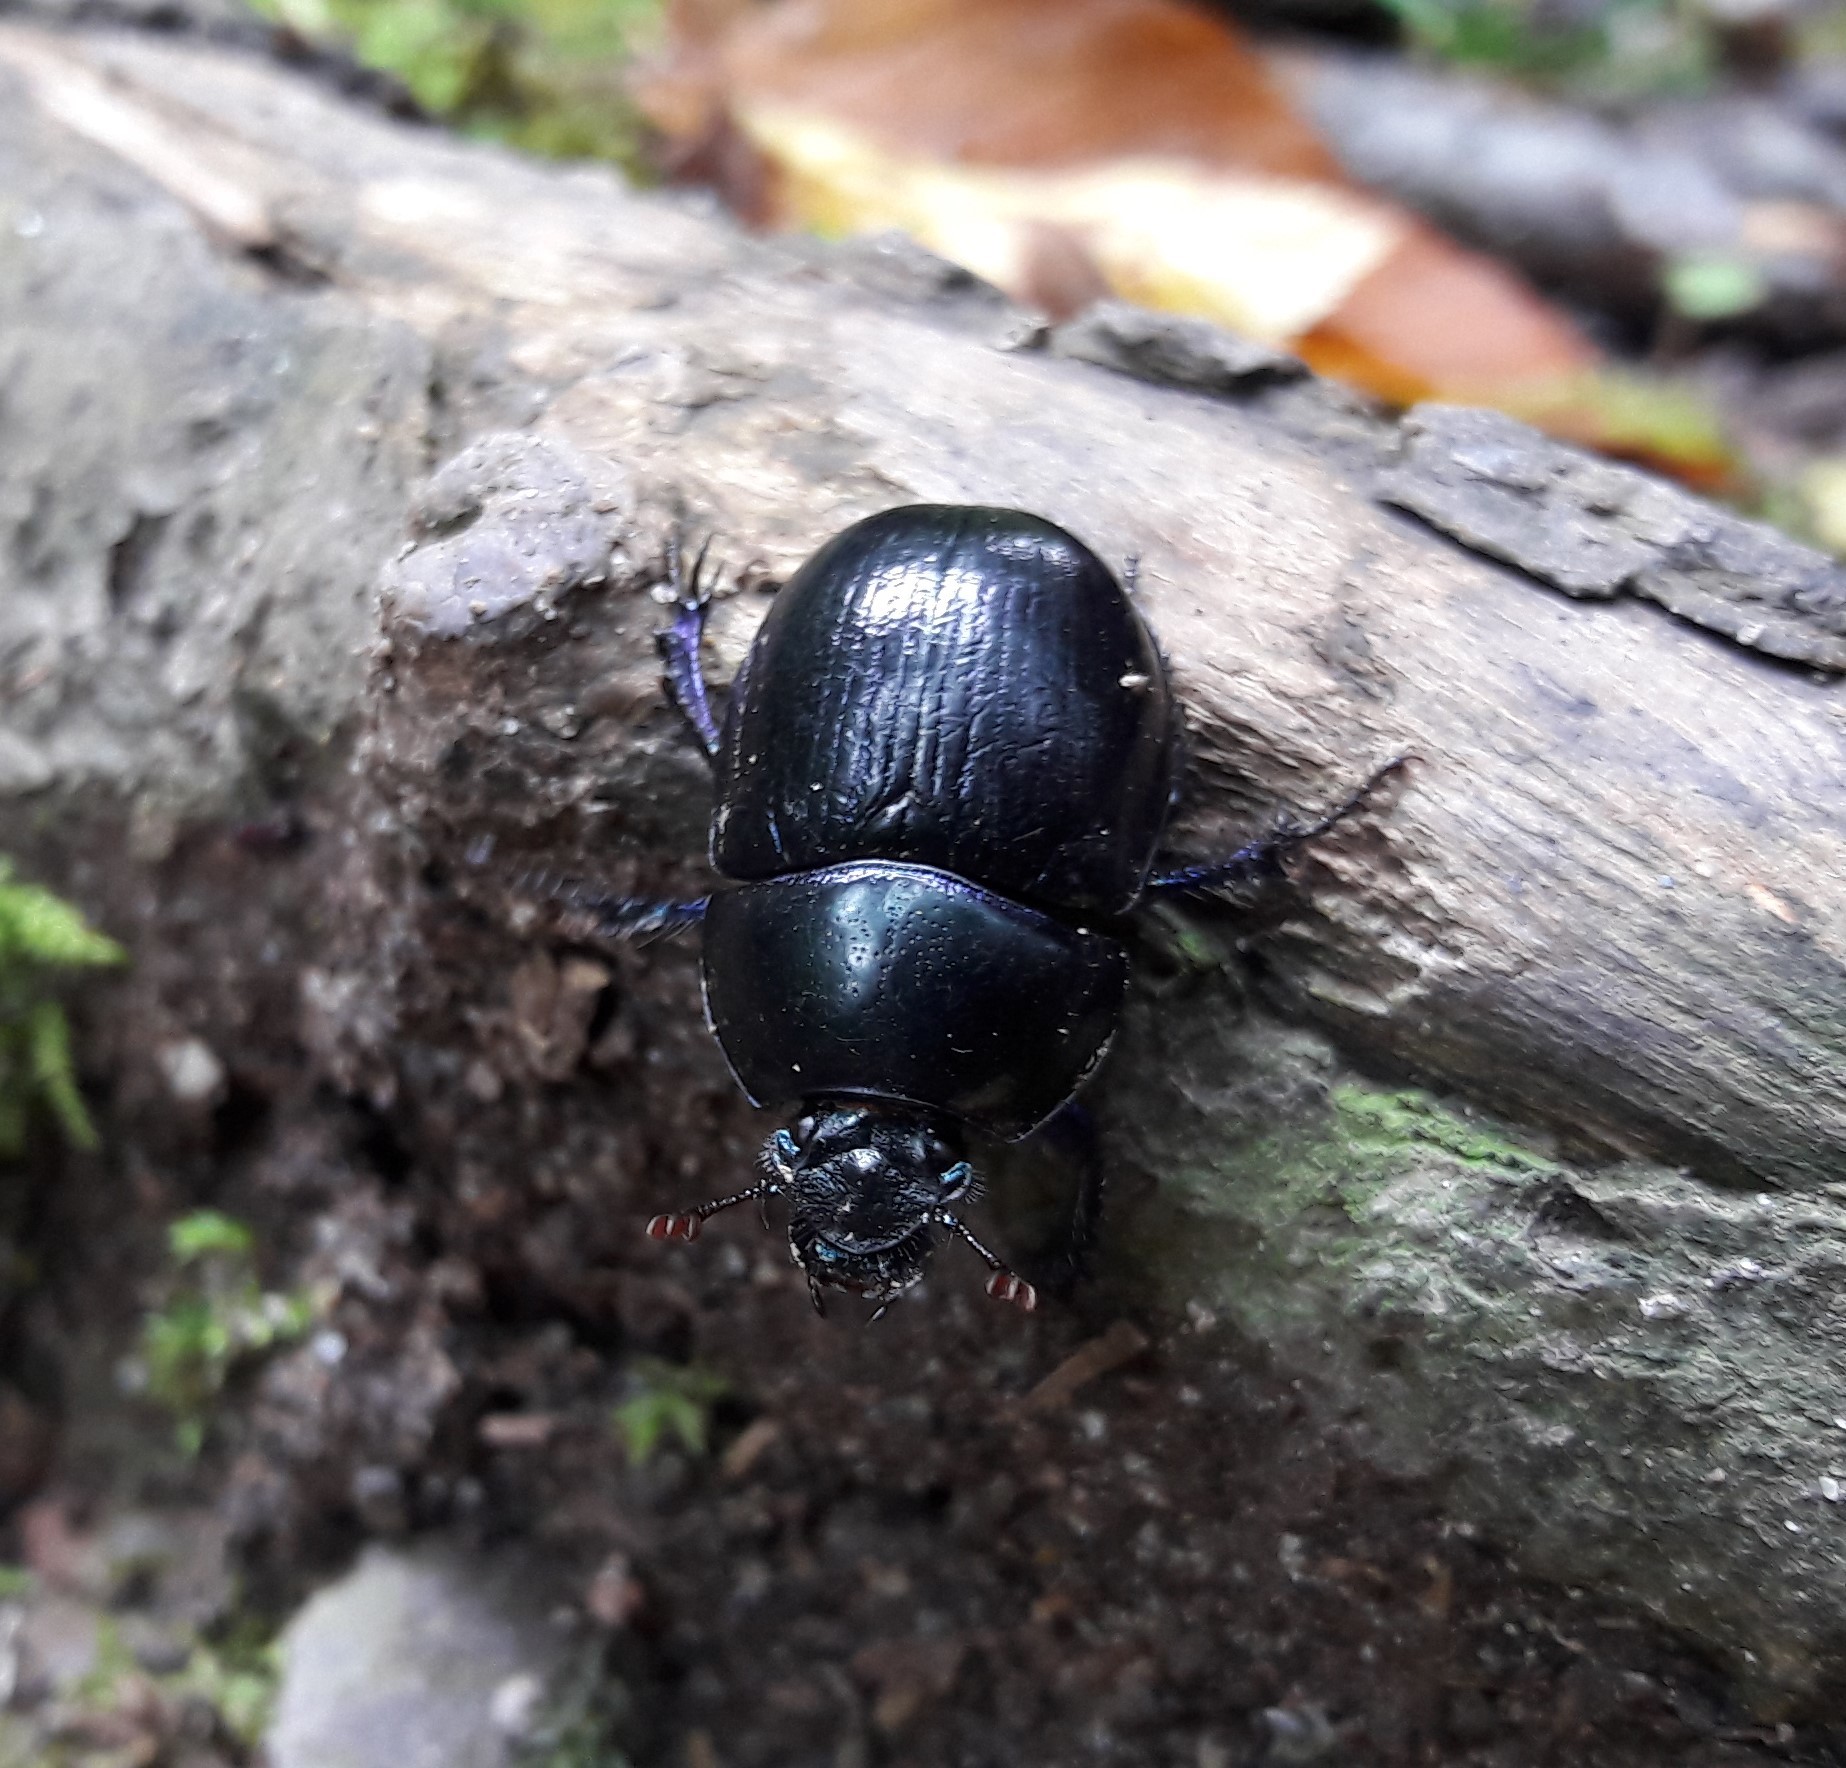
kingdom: Animalia
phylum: Arthropoda
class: Insecta
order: Coleoptera
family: Geotrupidae
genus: Anoplotrupes
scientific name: Anoplotrupes stercorosus
